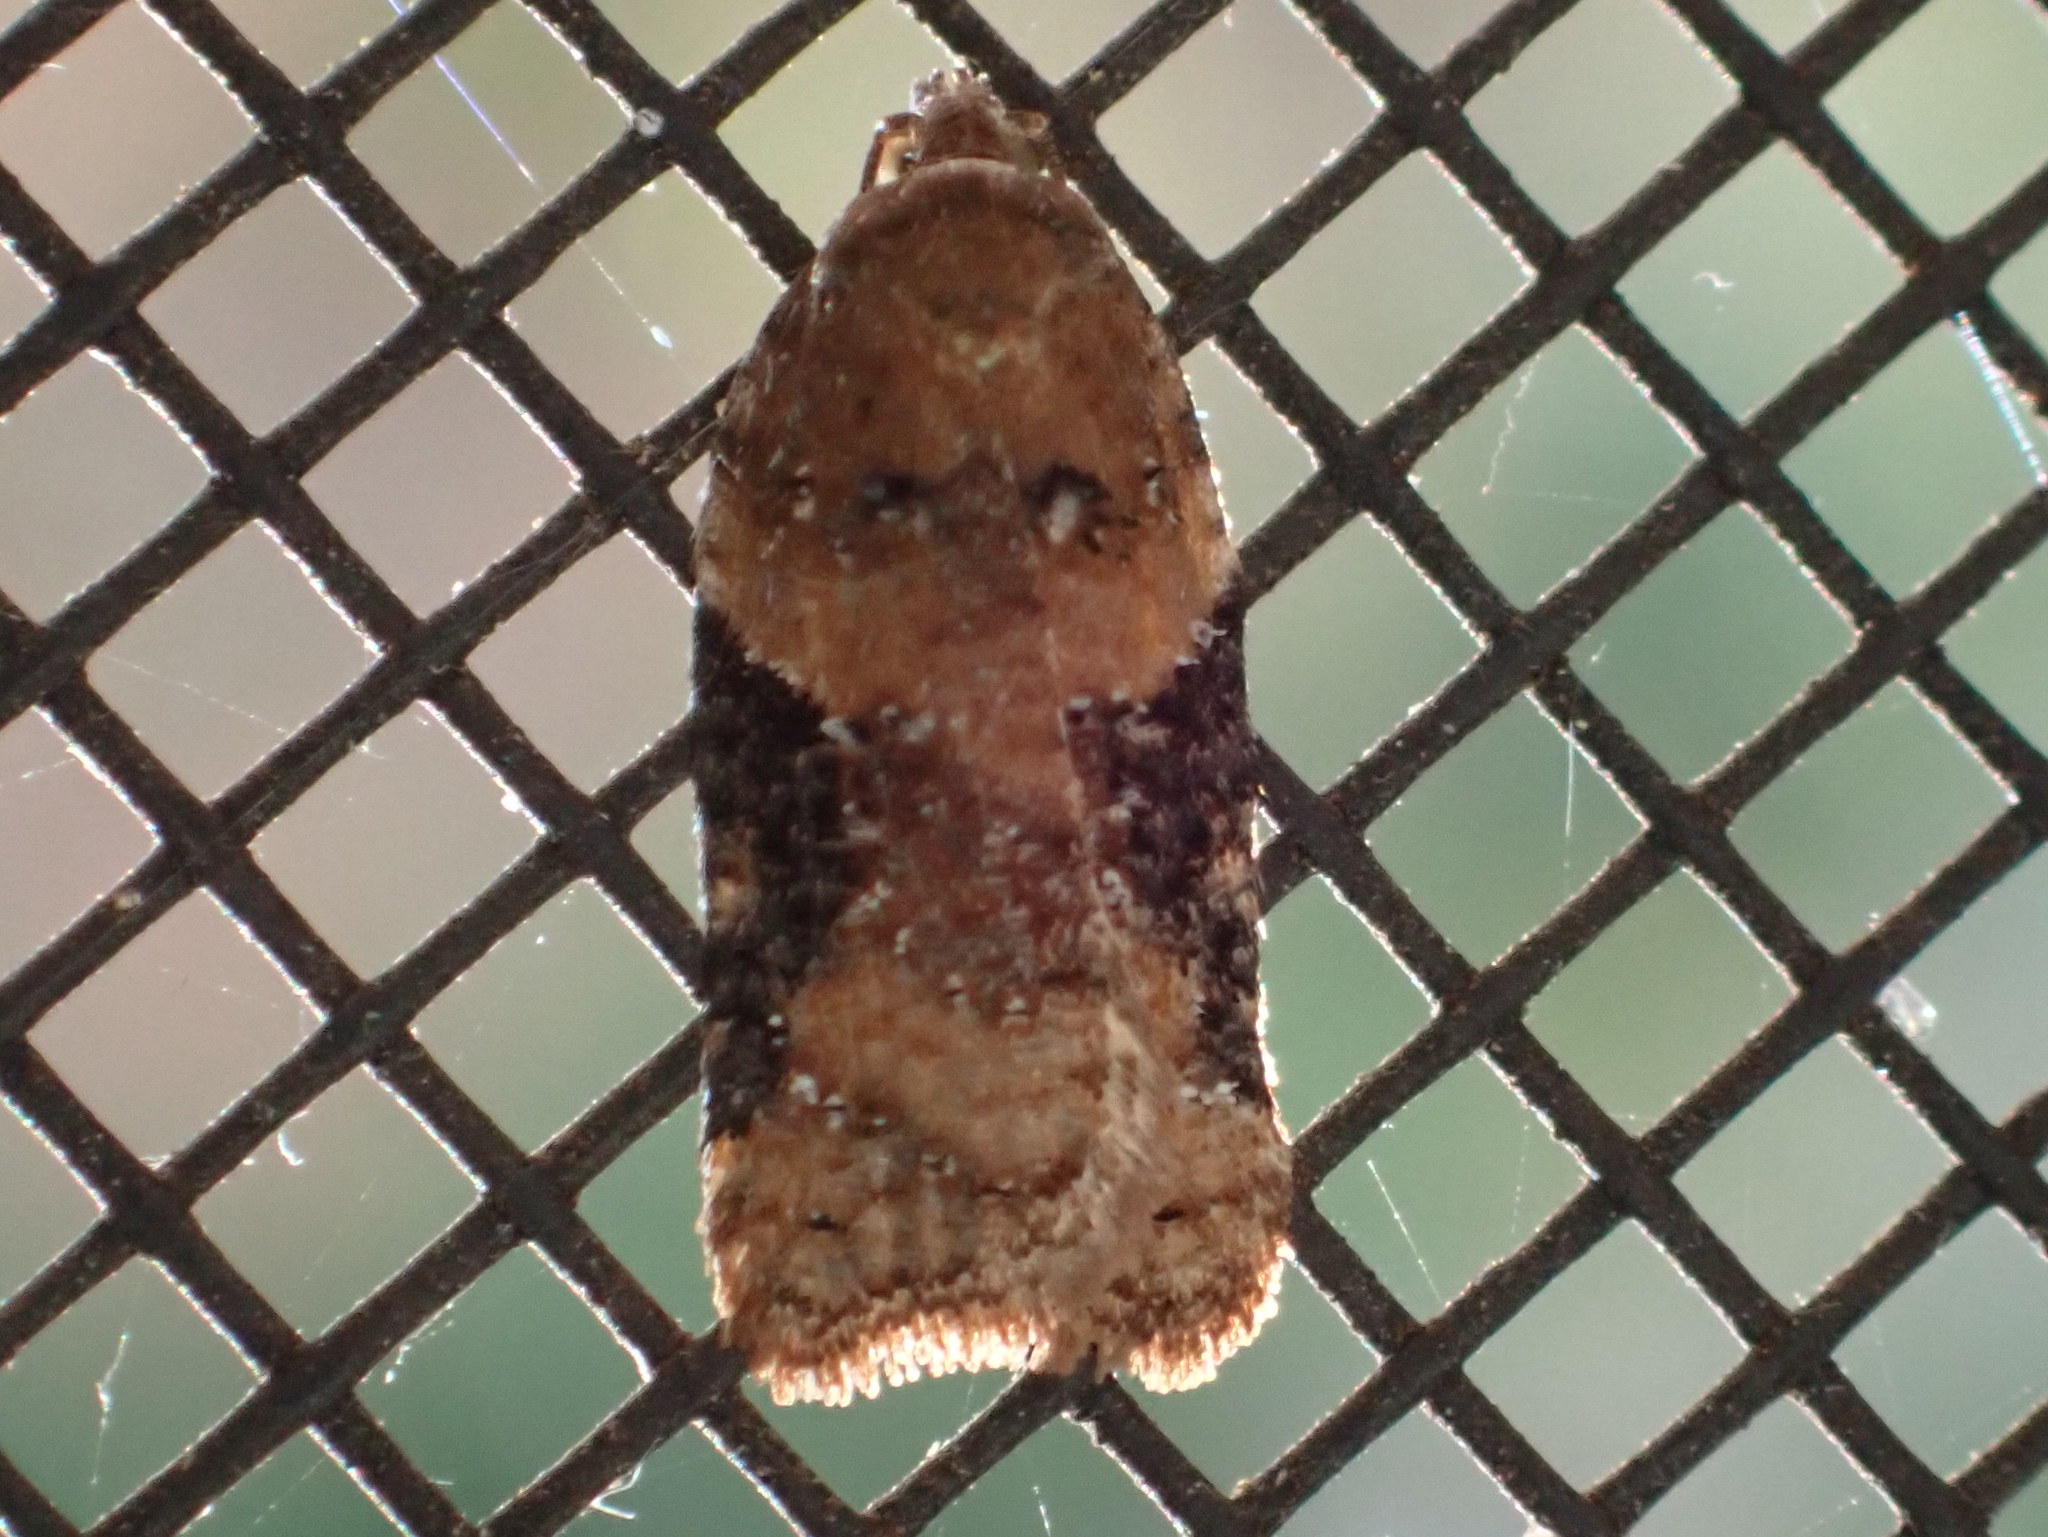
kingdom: Animalia
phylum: Arthropoda
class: Insecta
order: Lepidoptera
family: Tortricidae
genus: Acleris
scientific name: Acleris braunana
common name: Alder leafroller
